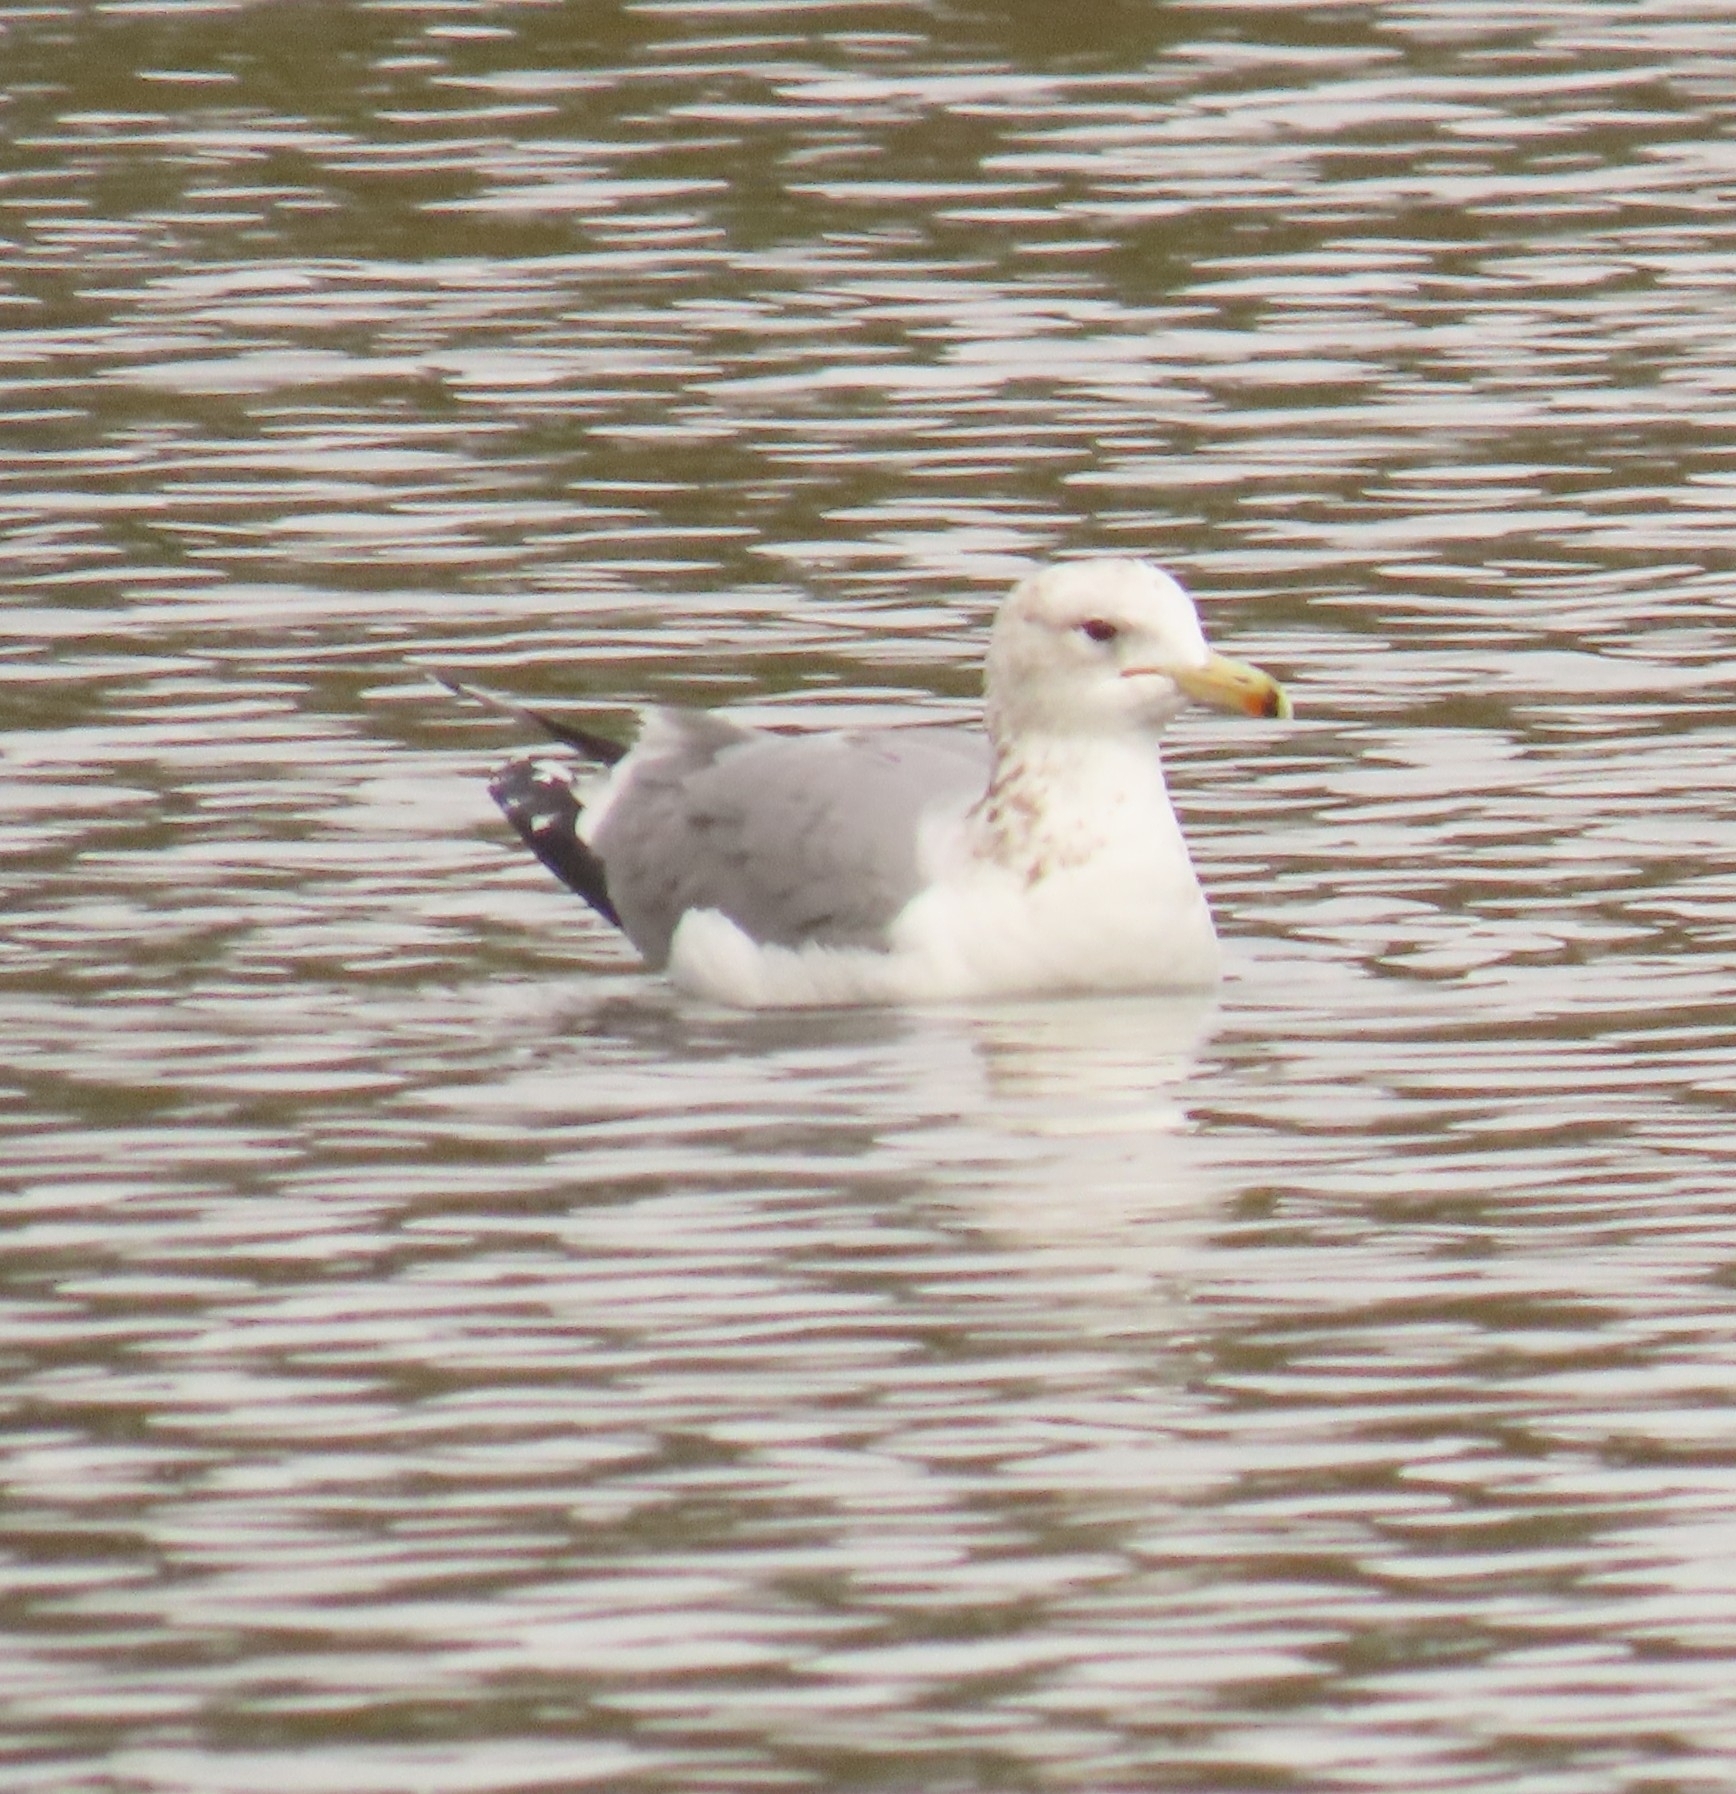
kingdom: Animalia
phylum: Chordata
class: Aves
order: Charadriiformes
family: Laridae
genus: Larus
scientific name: Larus californicus
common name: California gull
